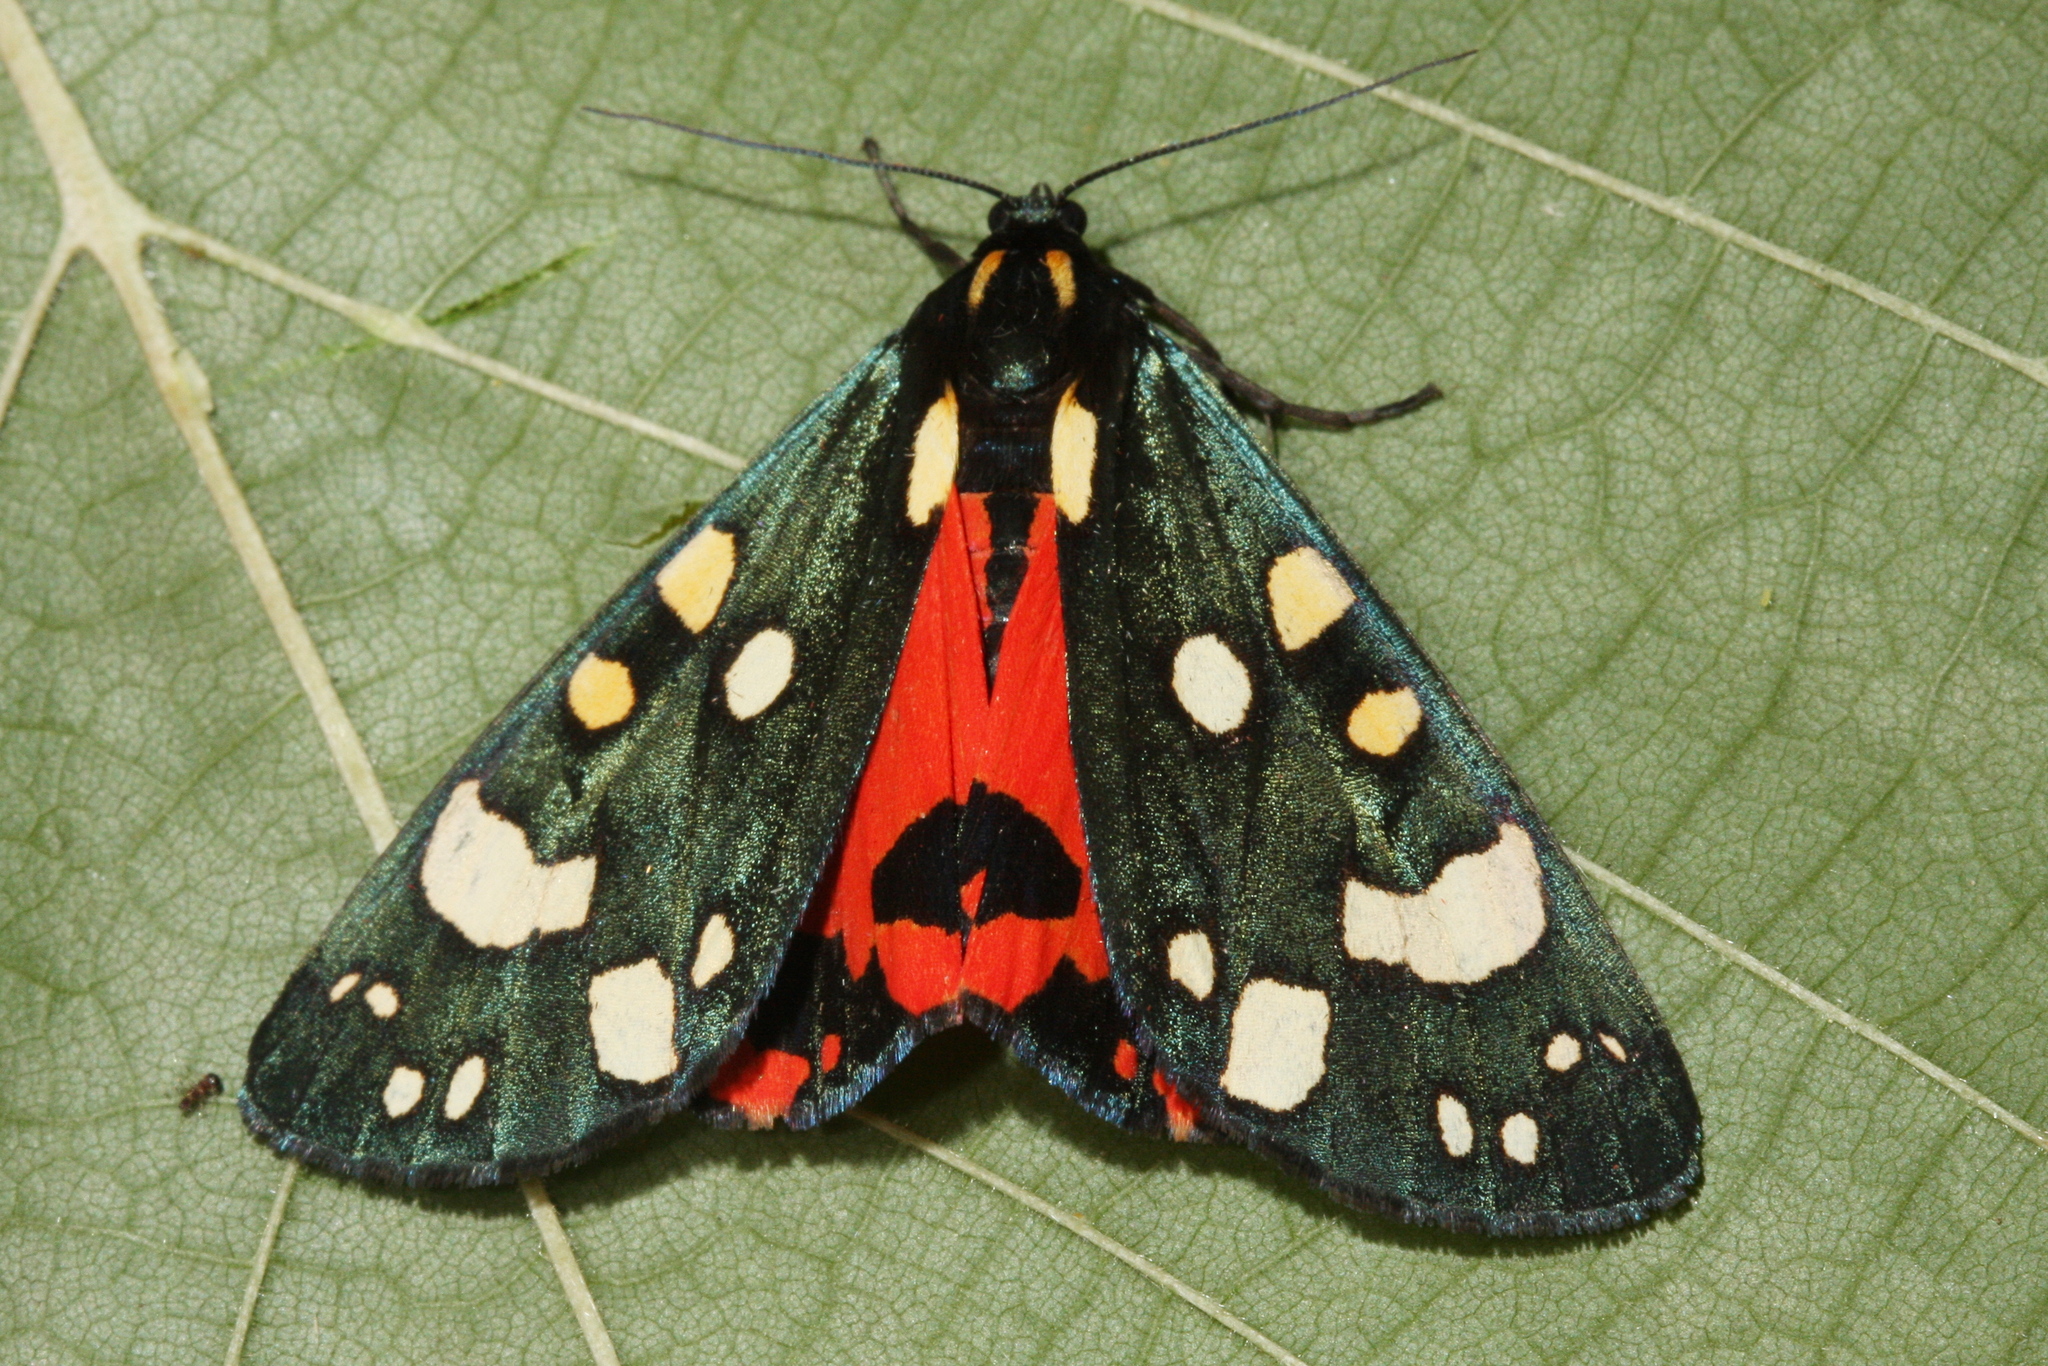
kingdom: Animalia
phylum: Arthropoda
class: Insecta
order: Lepidoptera
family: Erebidae
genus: Callimorpha
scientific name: Callimorpha dominula
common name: Scarlet tiger
